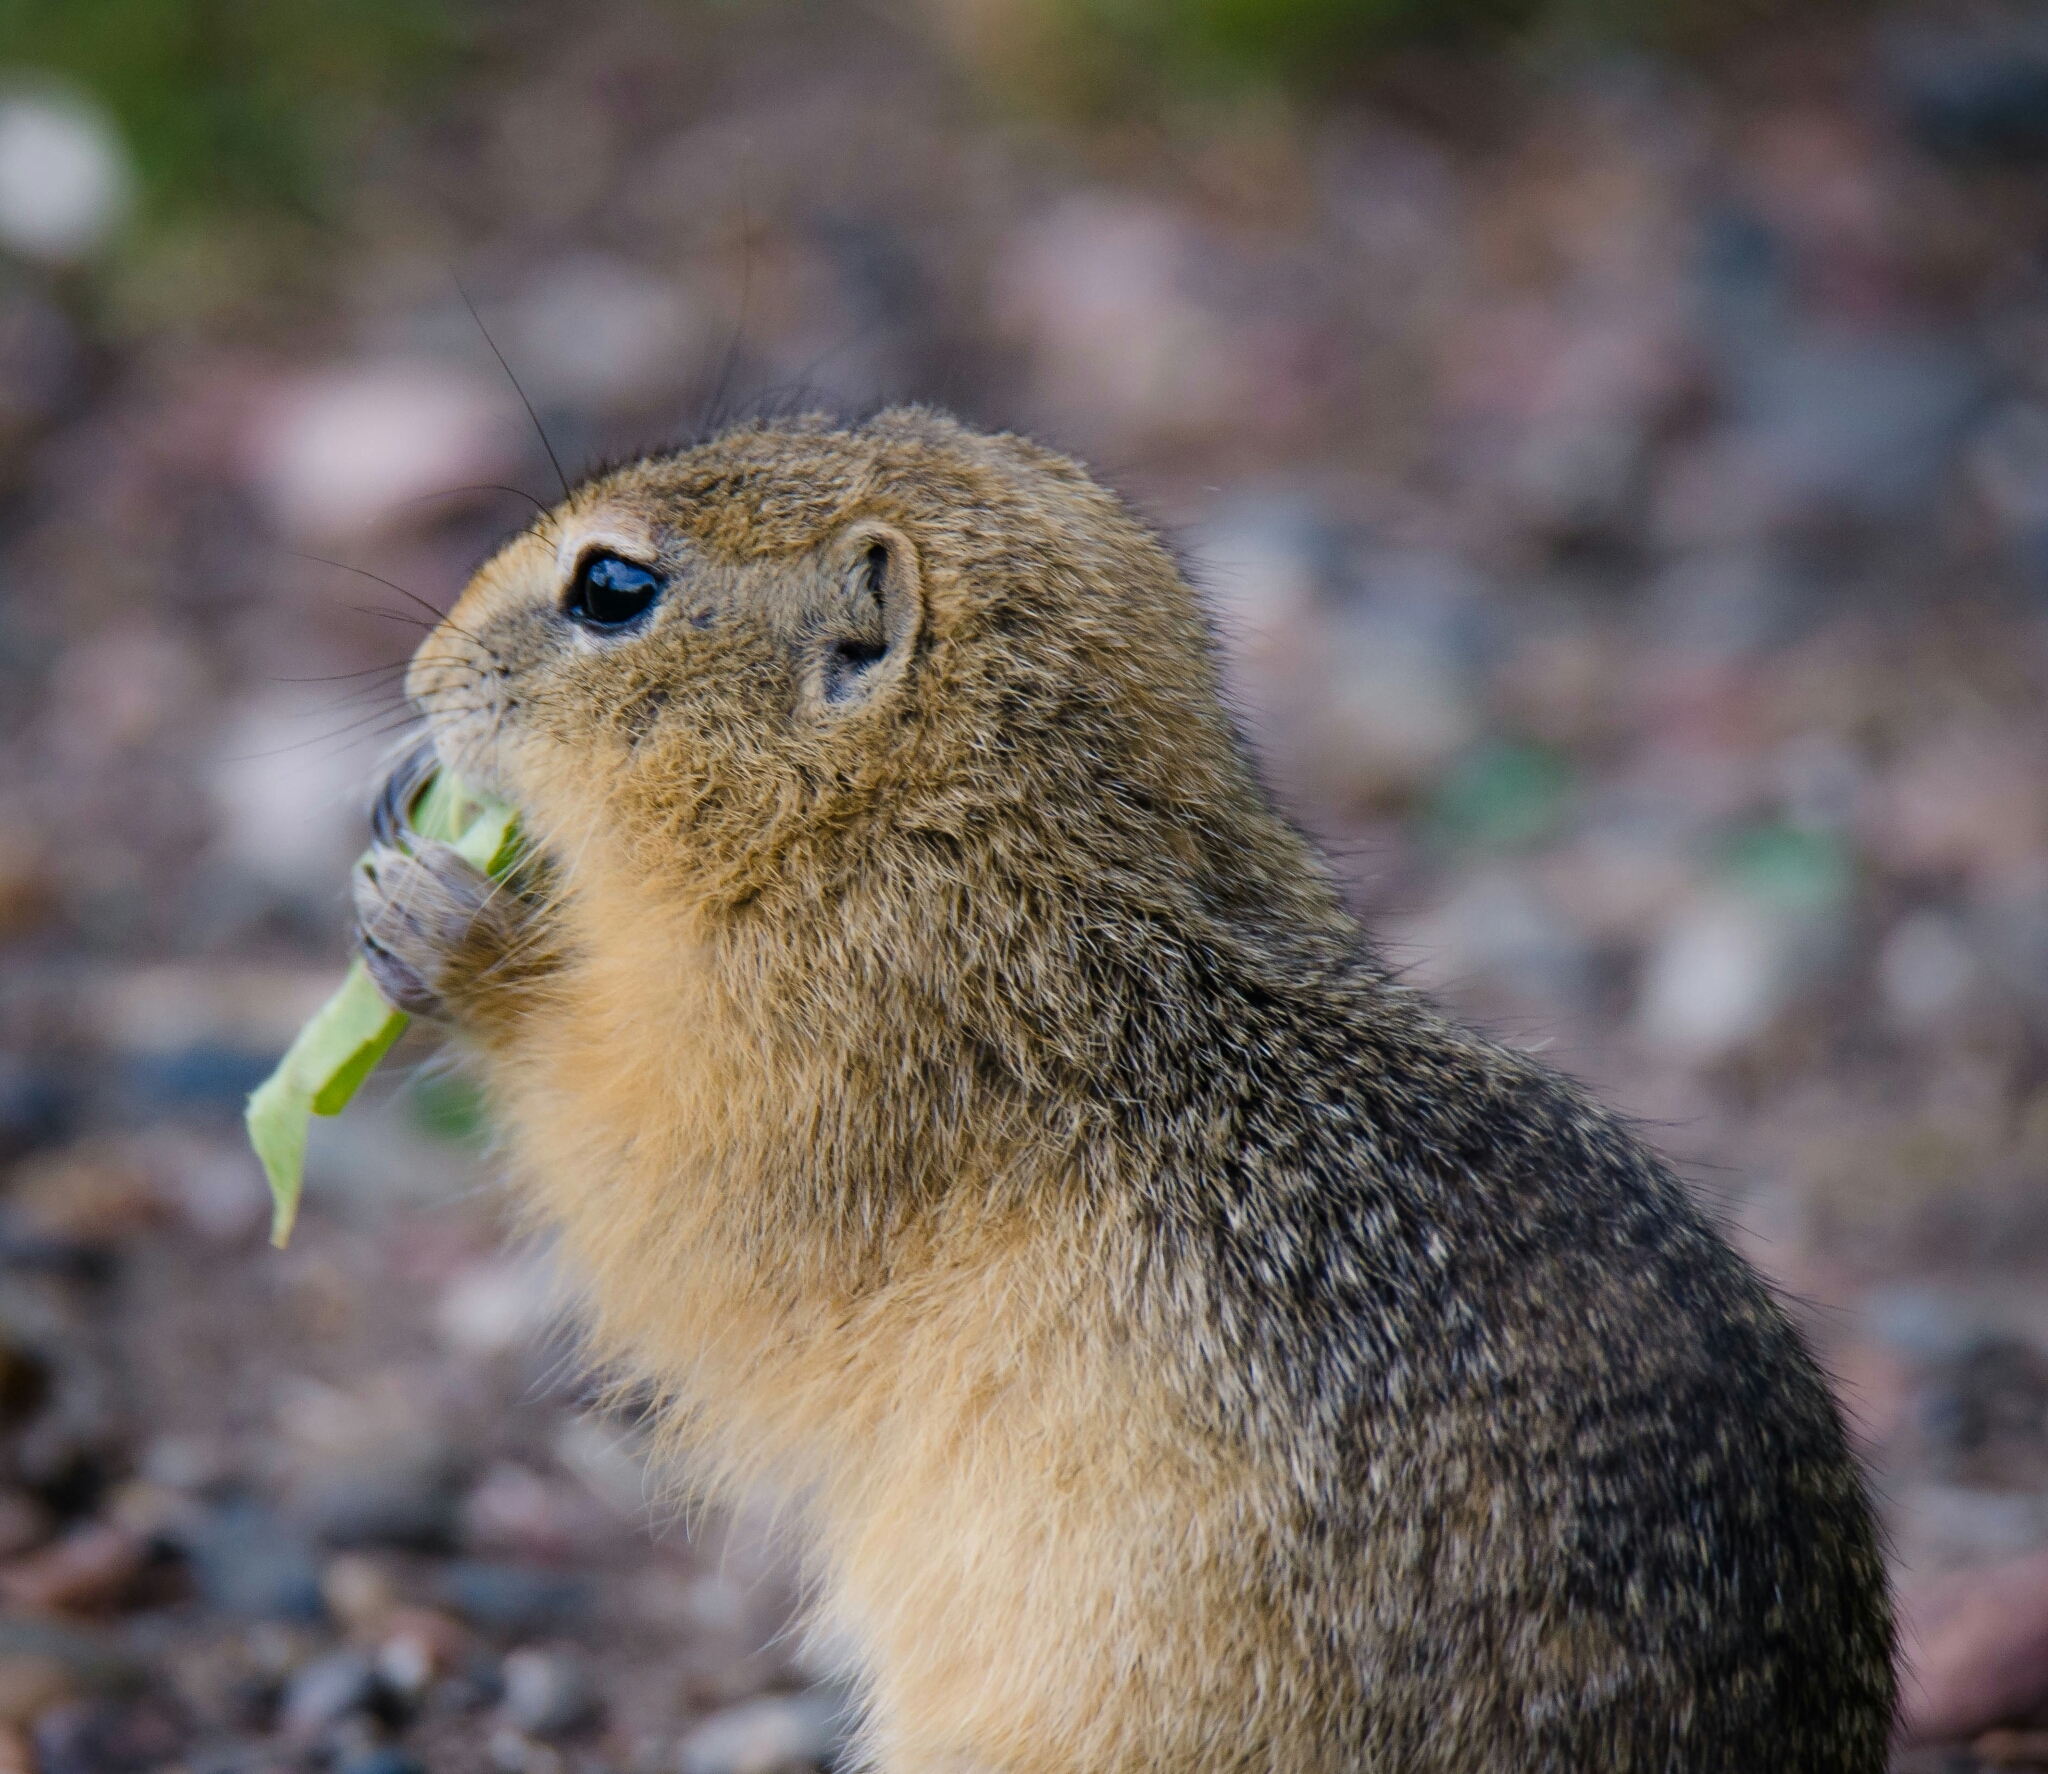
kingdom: Animalia
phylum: Chordata
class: Mammalia
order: Rodentia
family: Sciuridae
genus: Urocitellus
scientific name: Urocitellus undulatus
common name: Long-tailed ground squirrel
